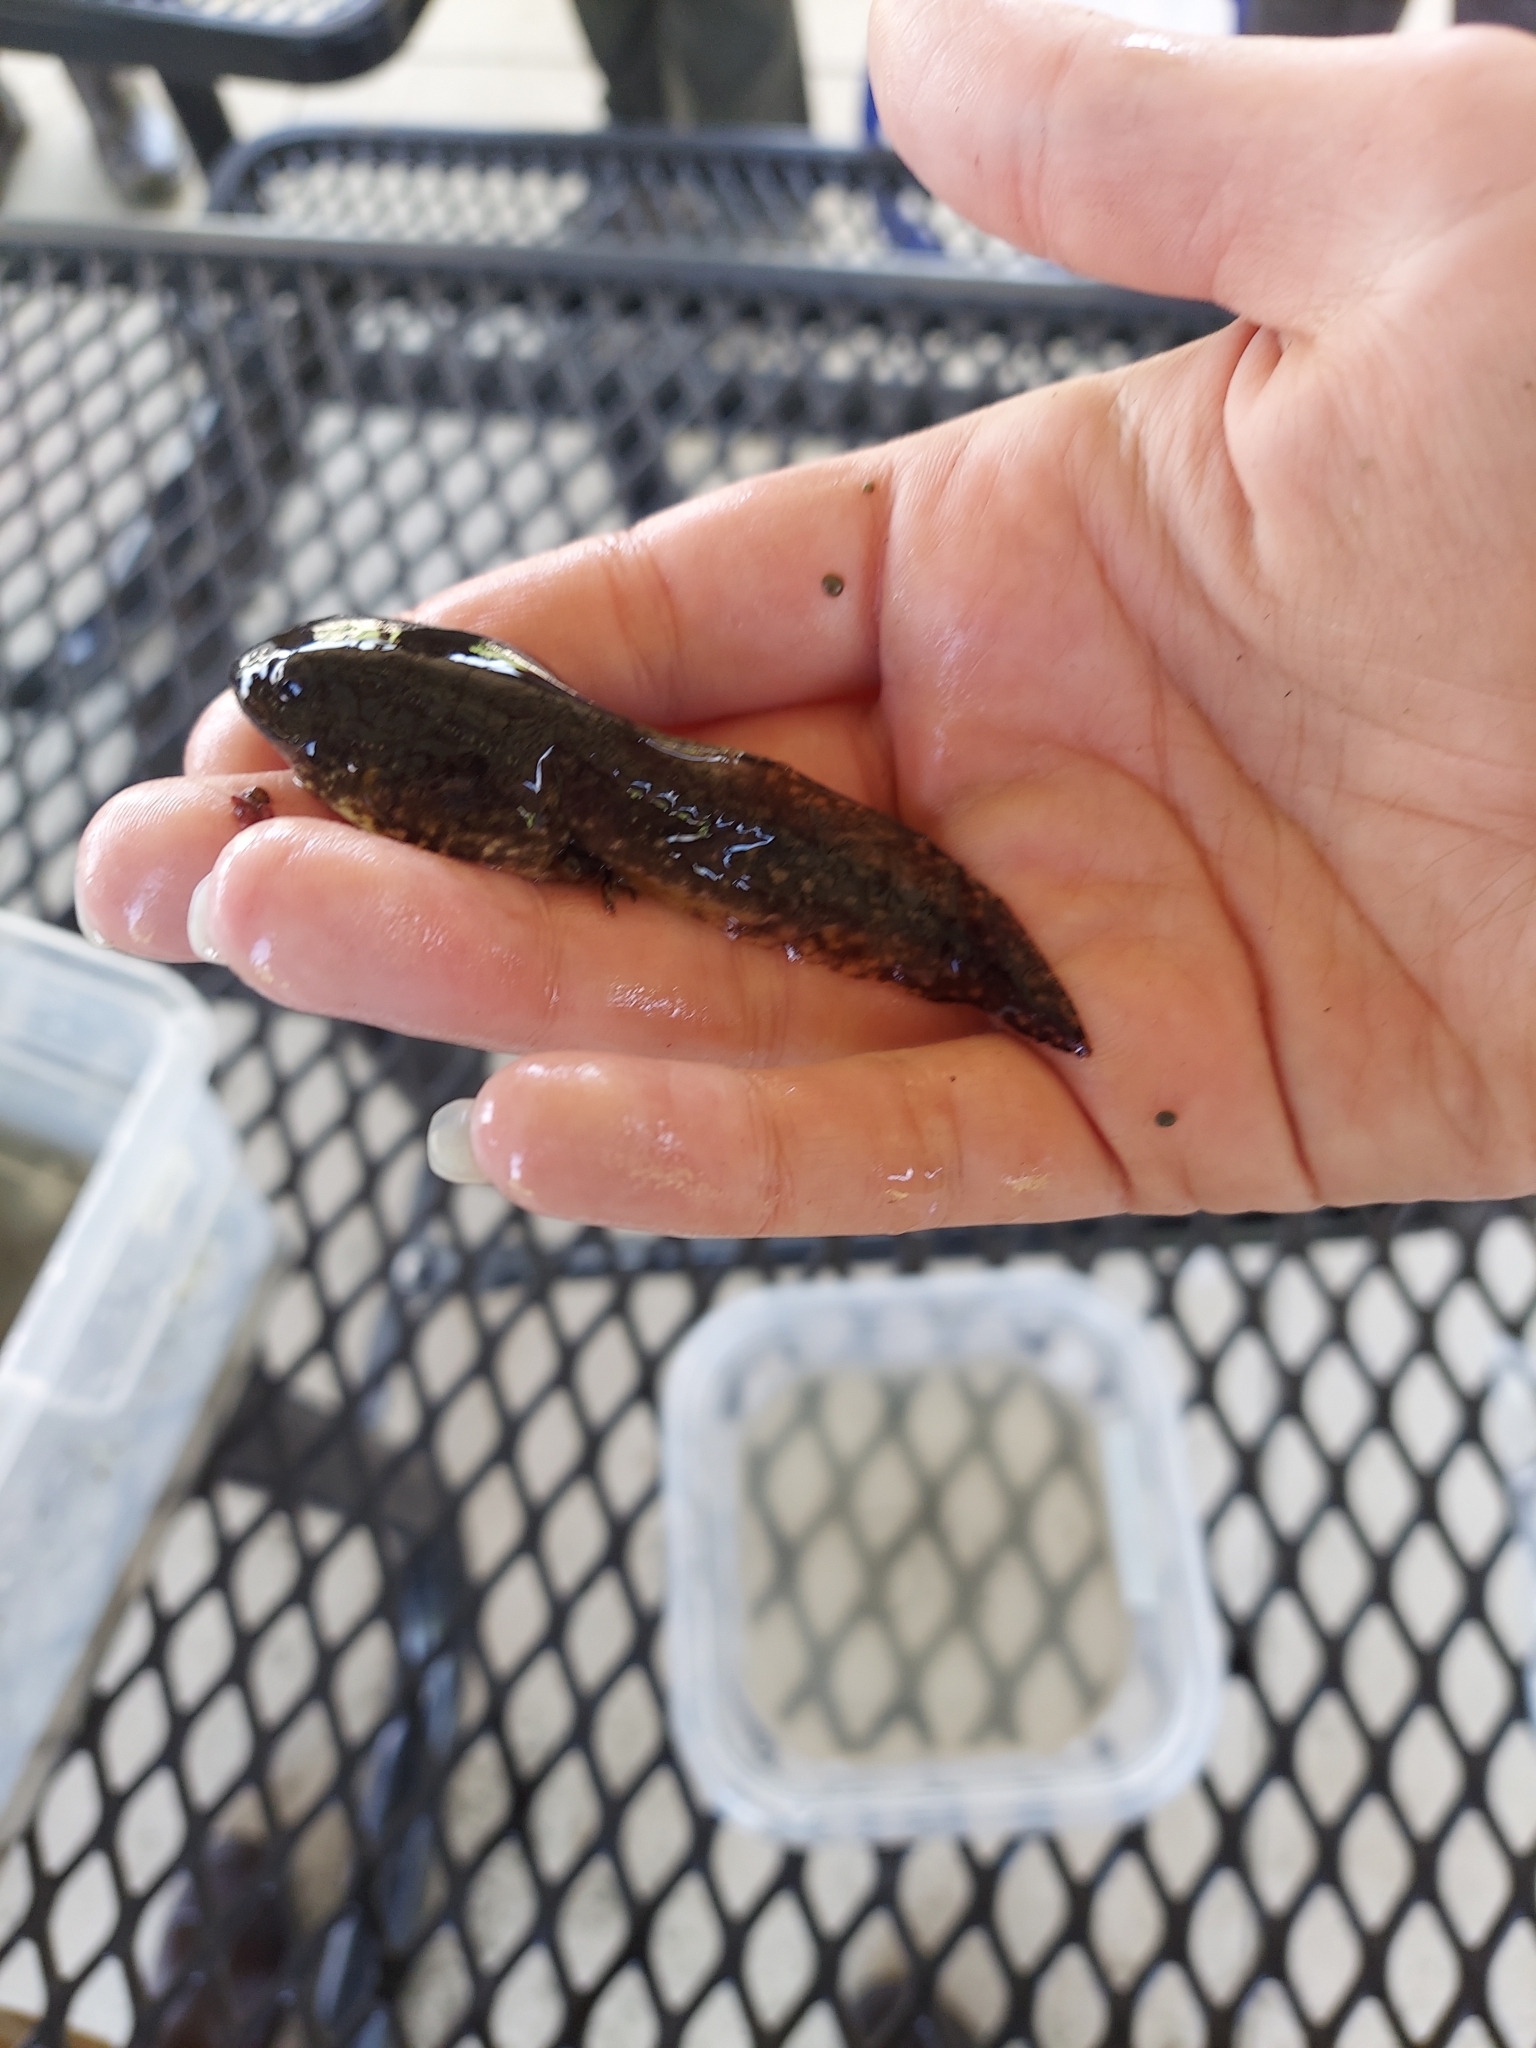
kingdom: Animalia
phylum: Chordata
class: Amphibia
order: Anura
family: Ranidae
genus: Lithobates
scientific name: Lithobates clamitans
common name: Green frog
